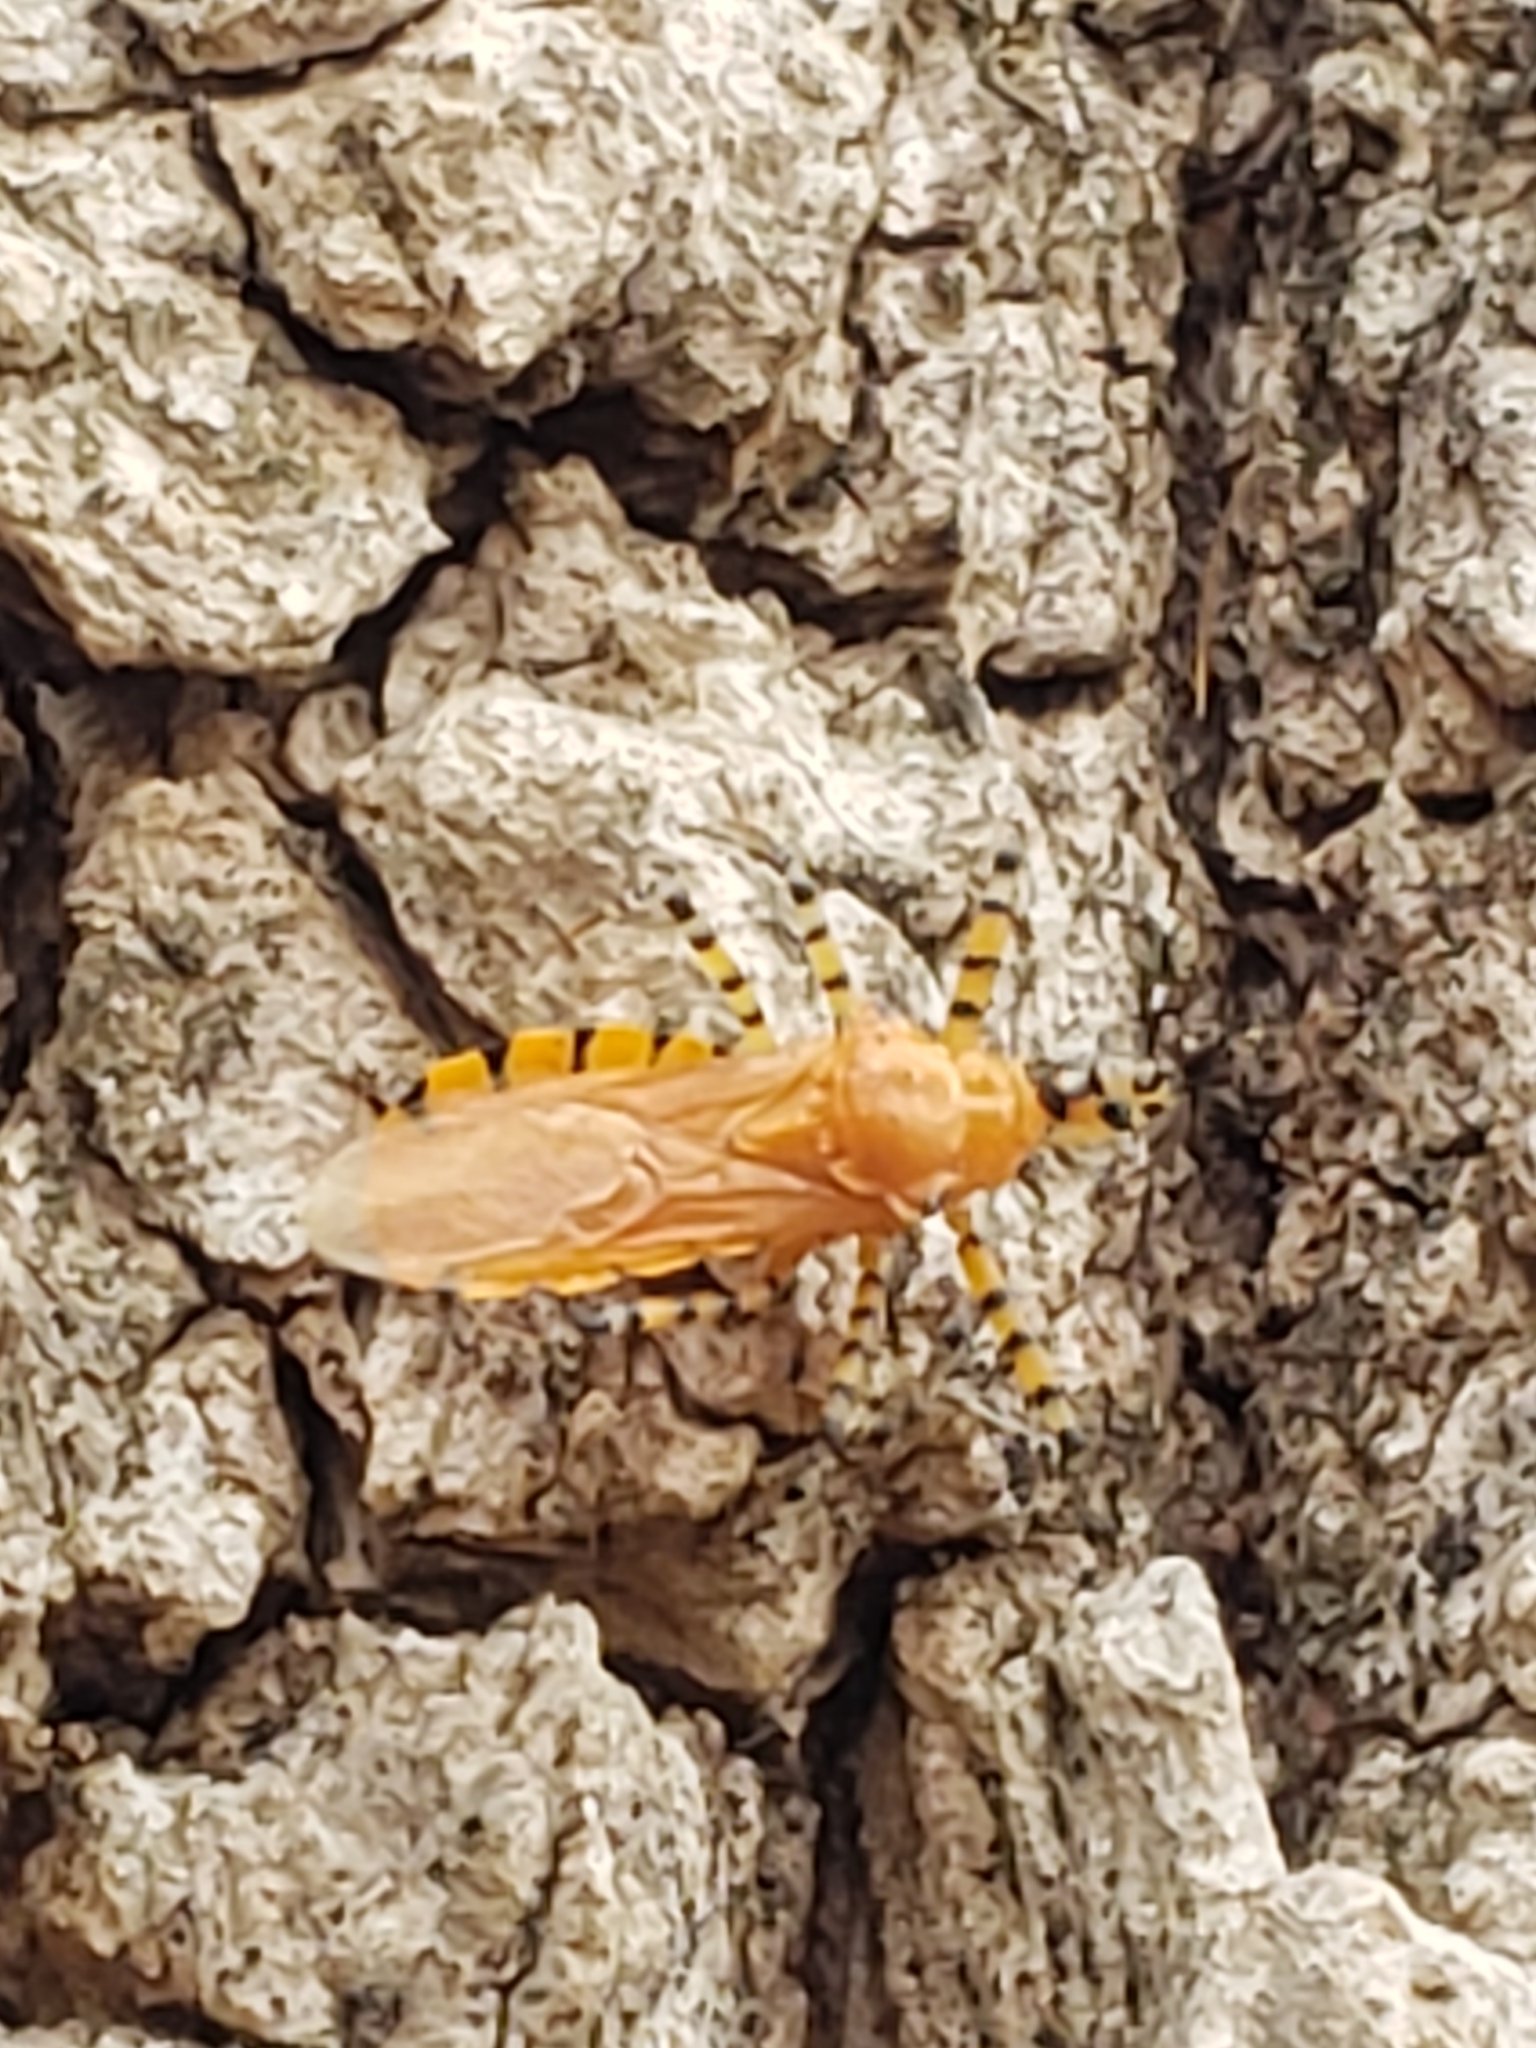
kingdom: Animalia
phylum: Arthropoda
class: Insecta
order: Hemiptera
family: Reduviidae
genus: Pselliopus
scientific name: Pselliopus barberi
